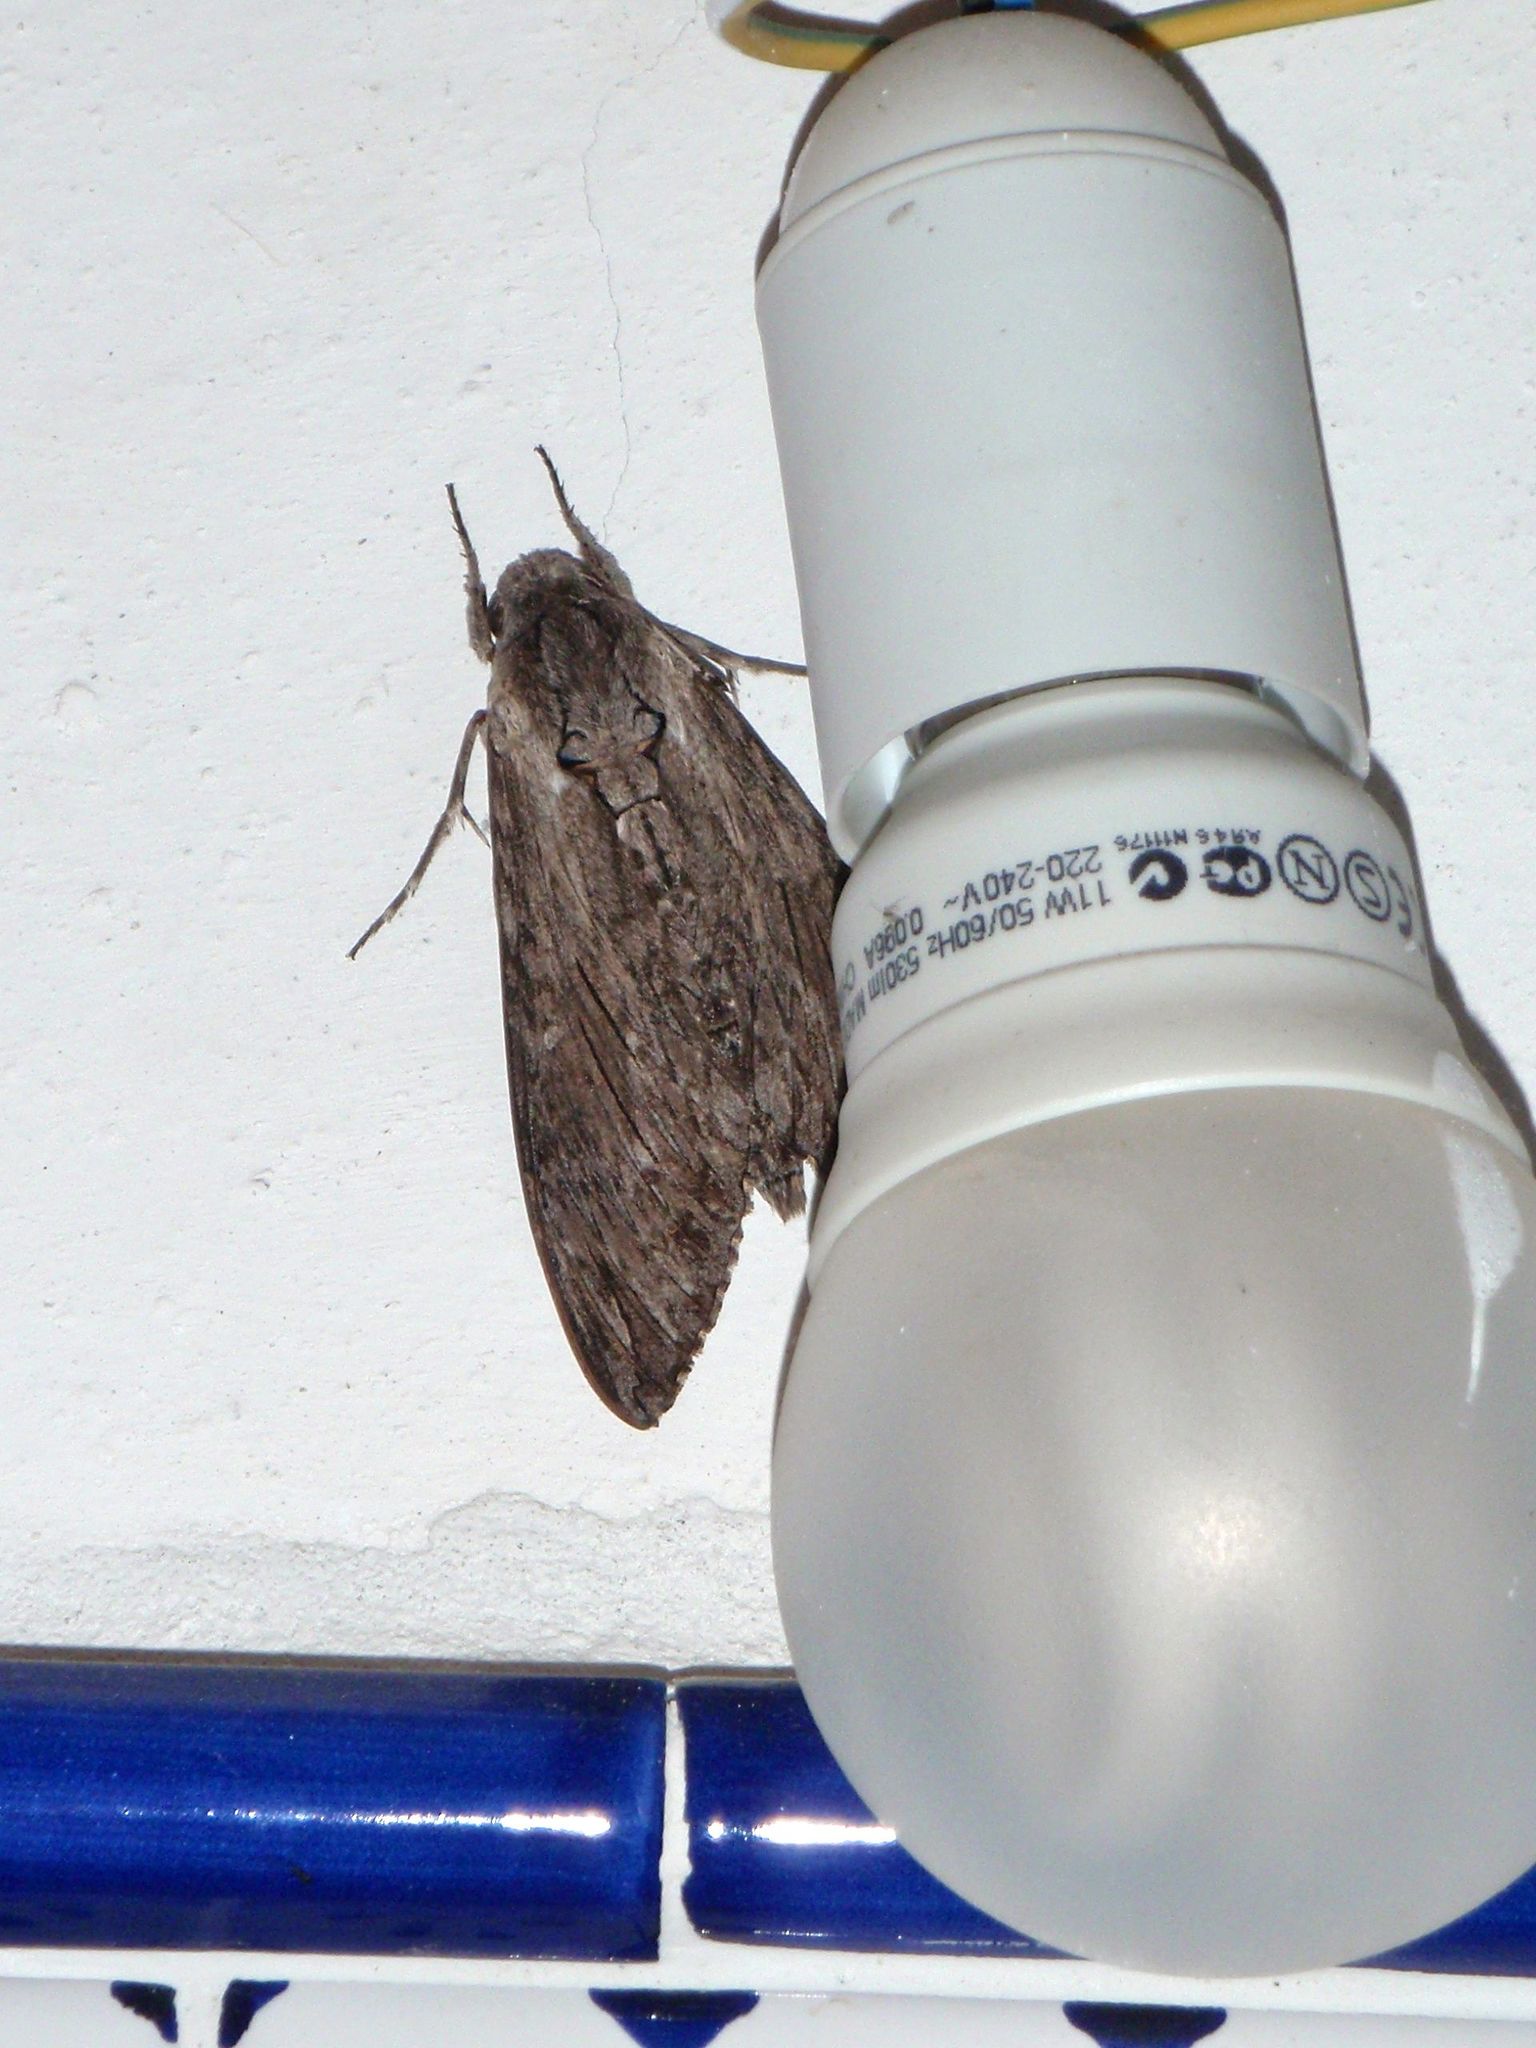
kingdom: Animalia
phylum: Arthropoda
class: Insecta
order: Lepidoptera
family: Sphingidae
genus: Agrius
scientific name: Agrius convolvuli
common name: Convolvulus hawkmoth
